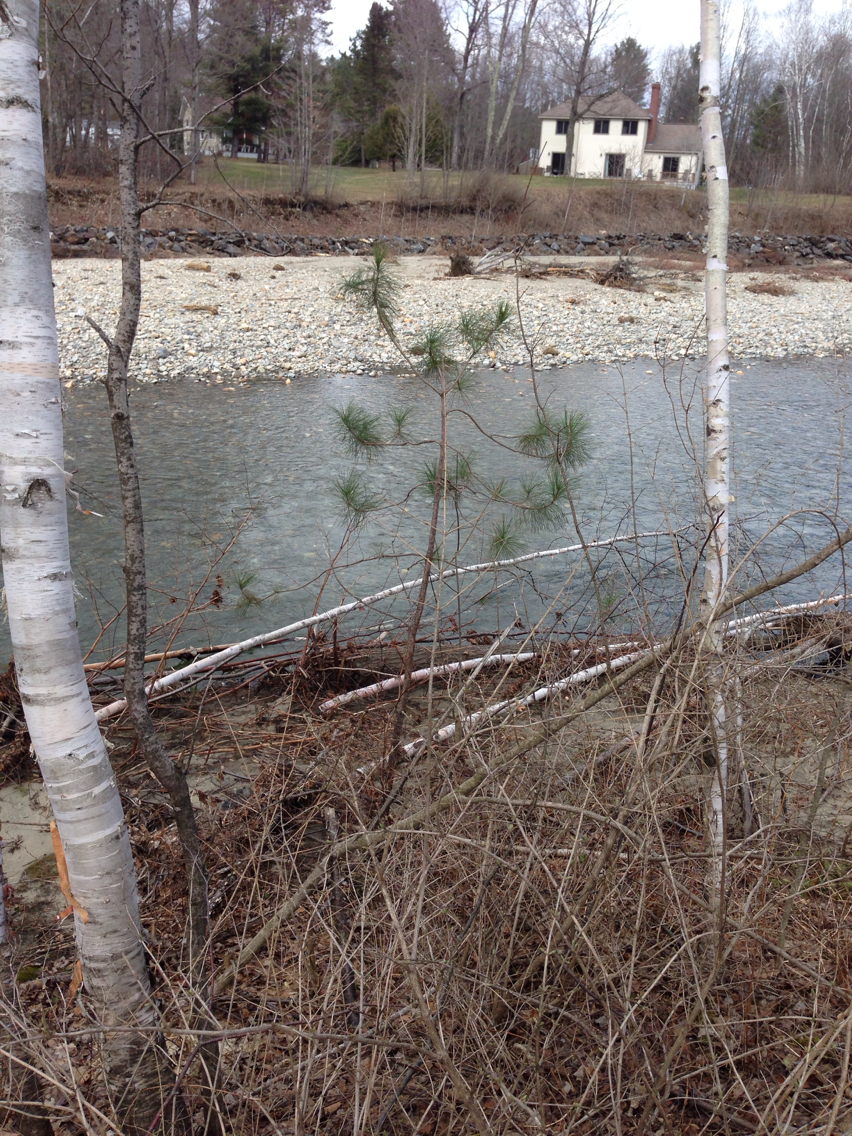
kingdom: Plantae
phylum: Tracheophyta
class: Pinopsida
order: Pinales
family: Pinaceae
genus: Pinus
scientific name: Pinus resinosa
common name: Norway pine
